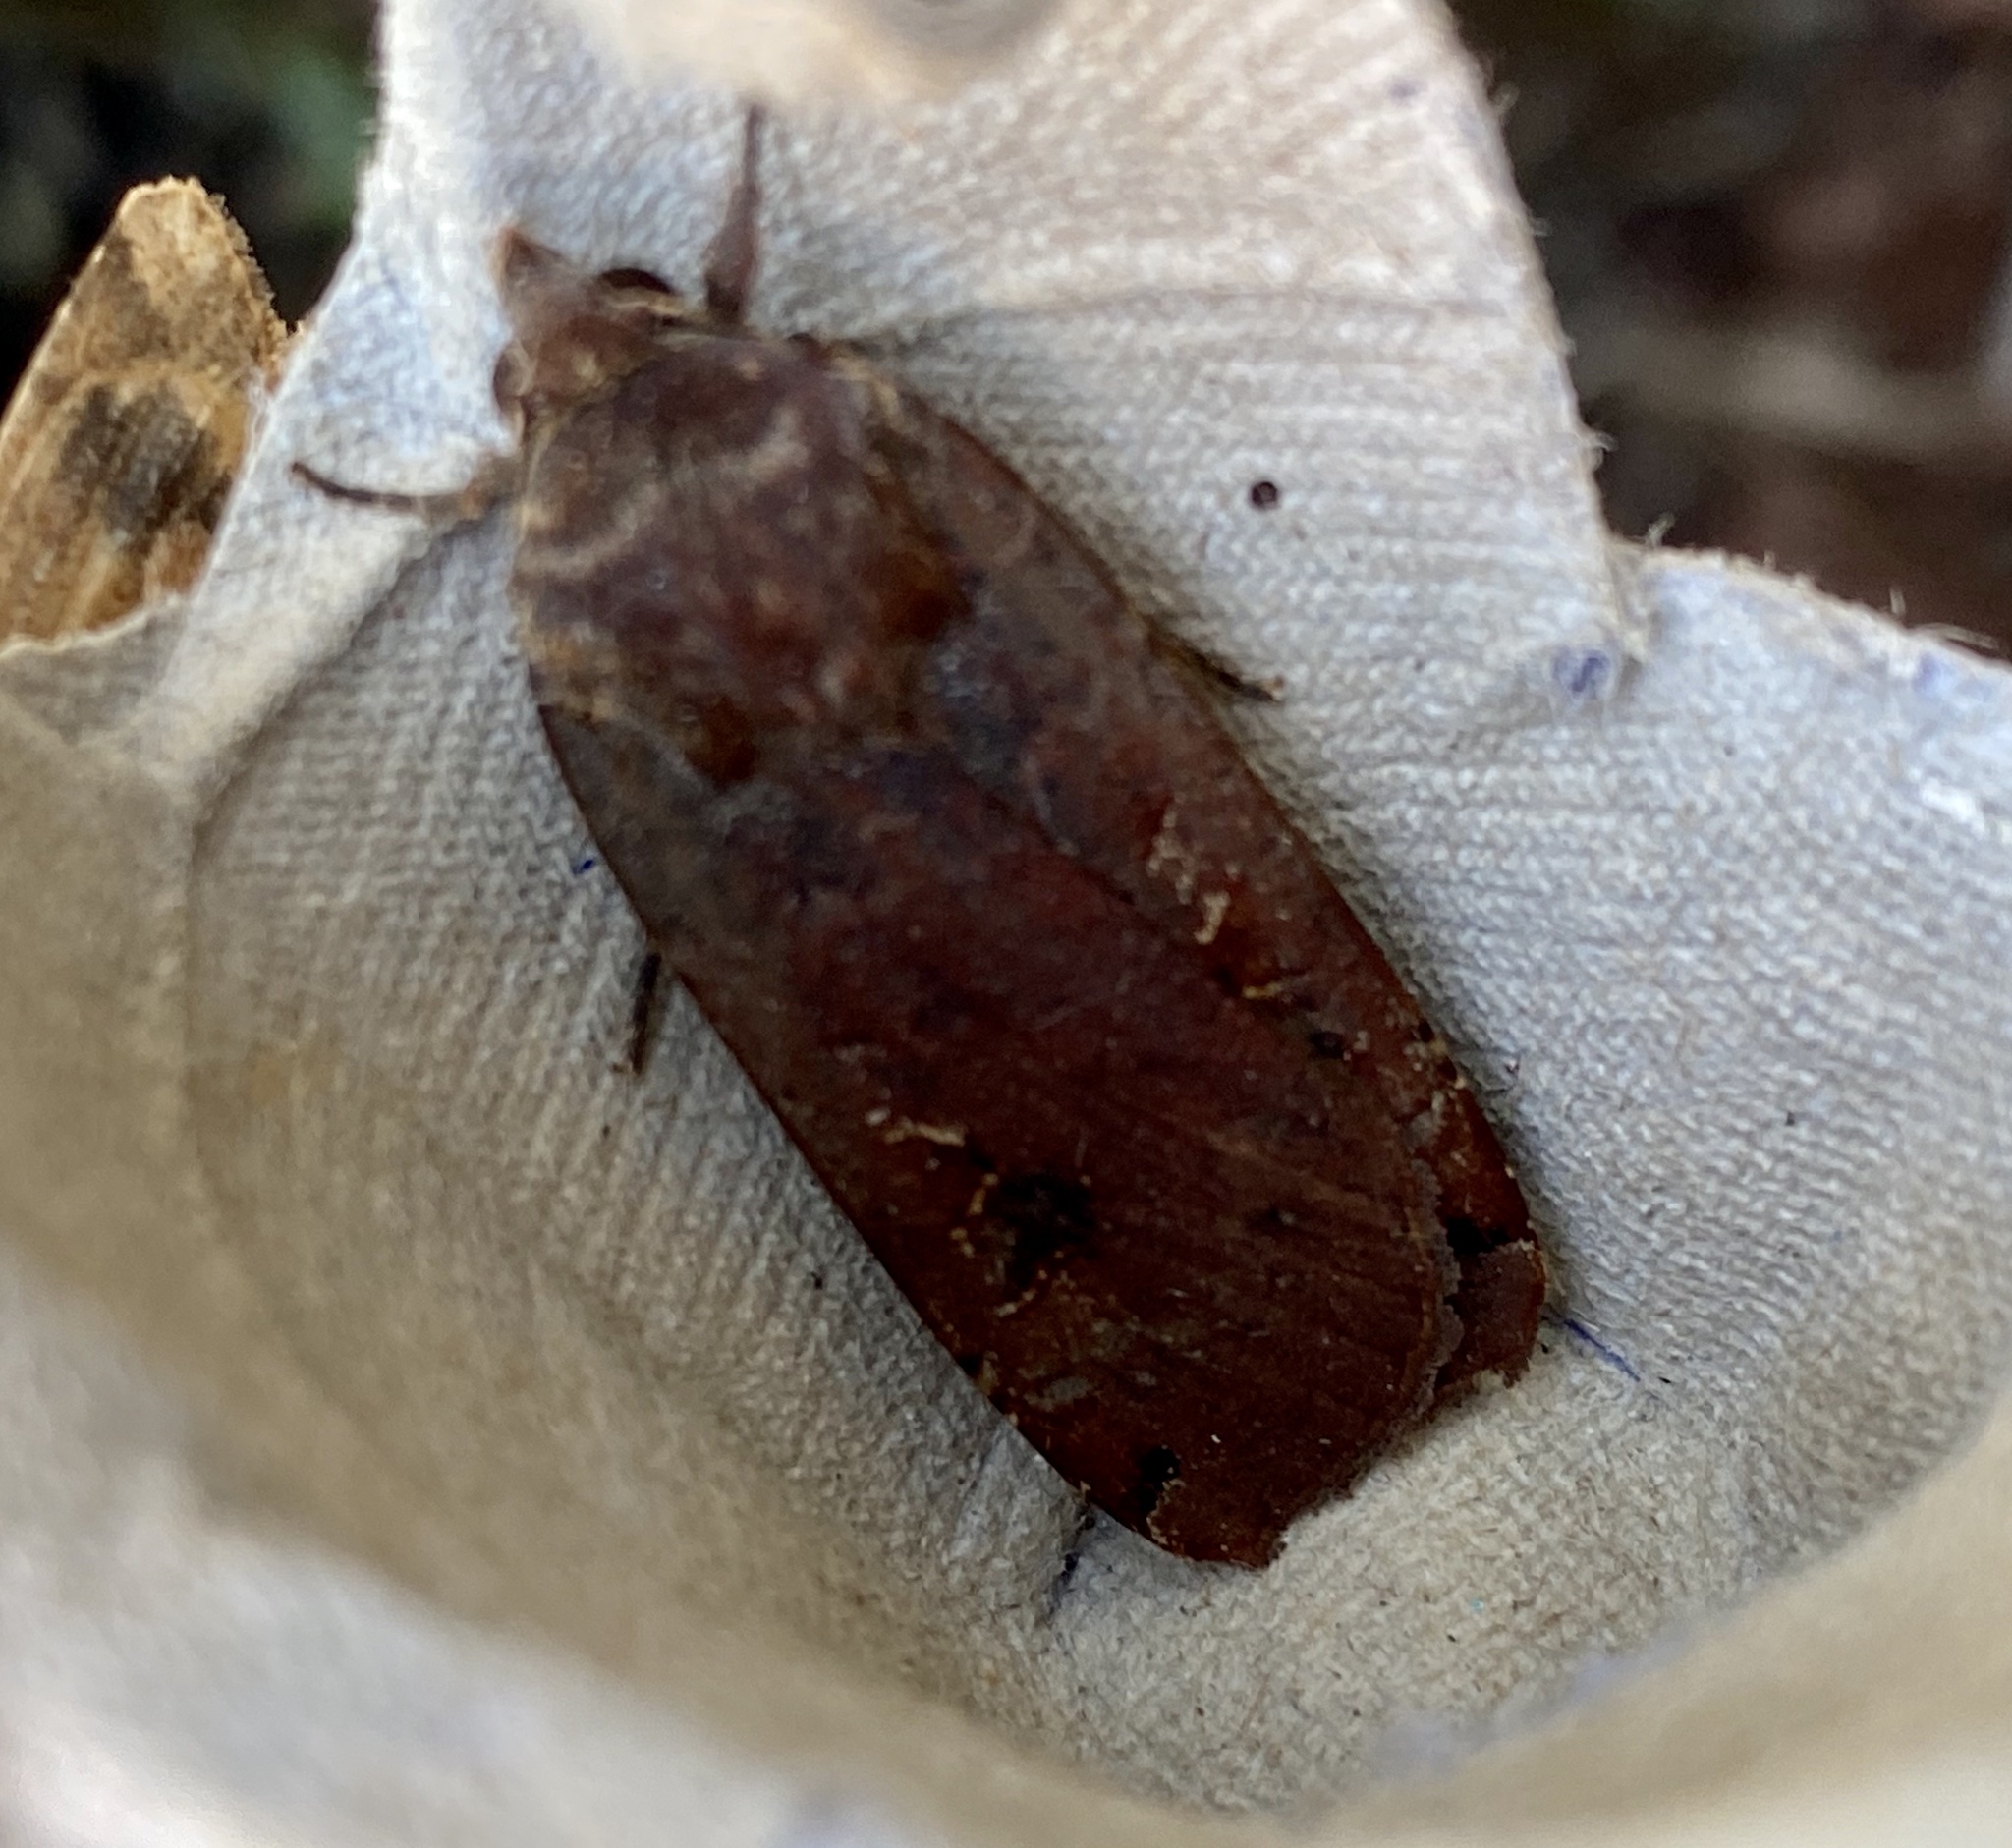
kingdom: Animalia
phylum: Arthropoda
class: Insecta
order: Lepidoptera
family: Noctuidae
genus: Noctua
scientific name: Noctua pronuba
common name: Large yellow underwing
